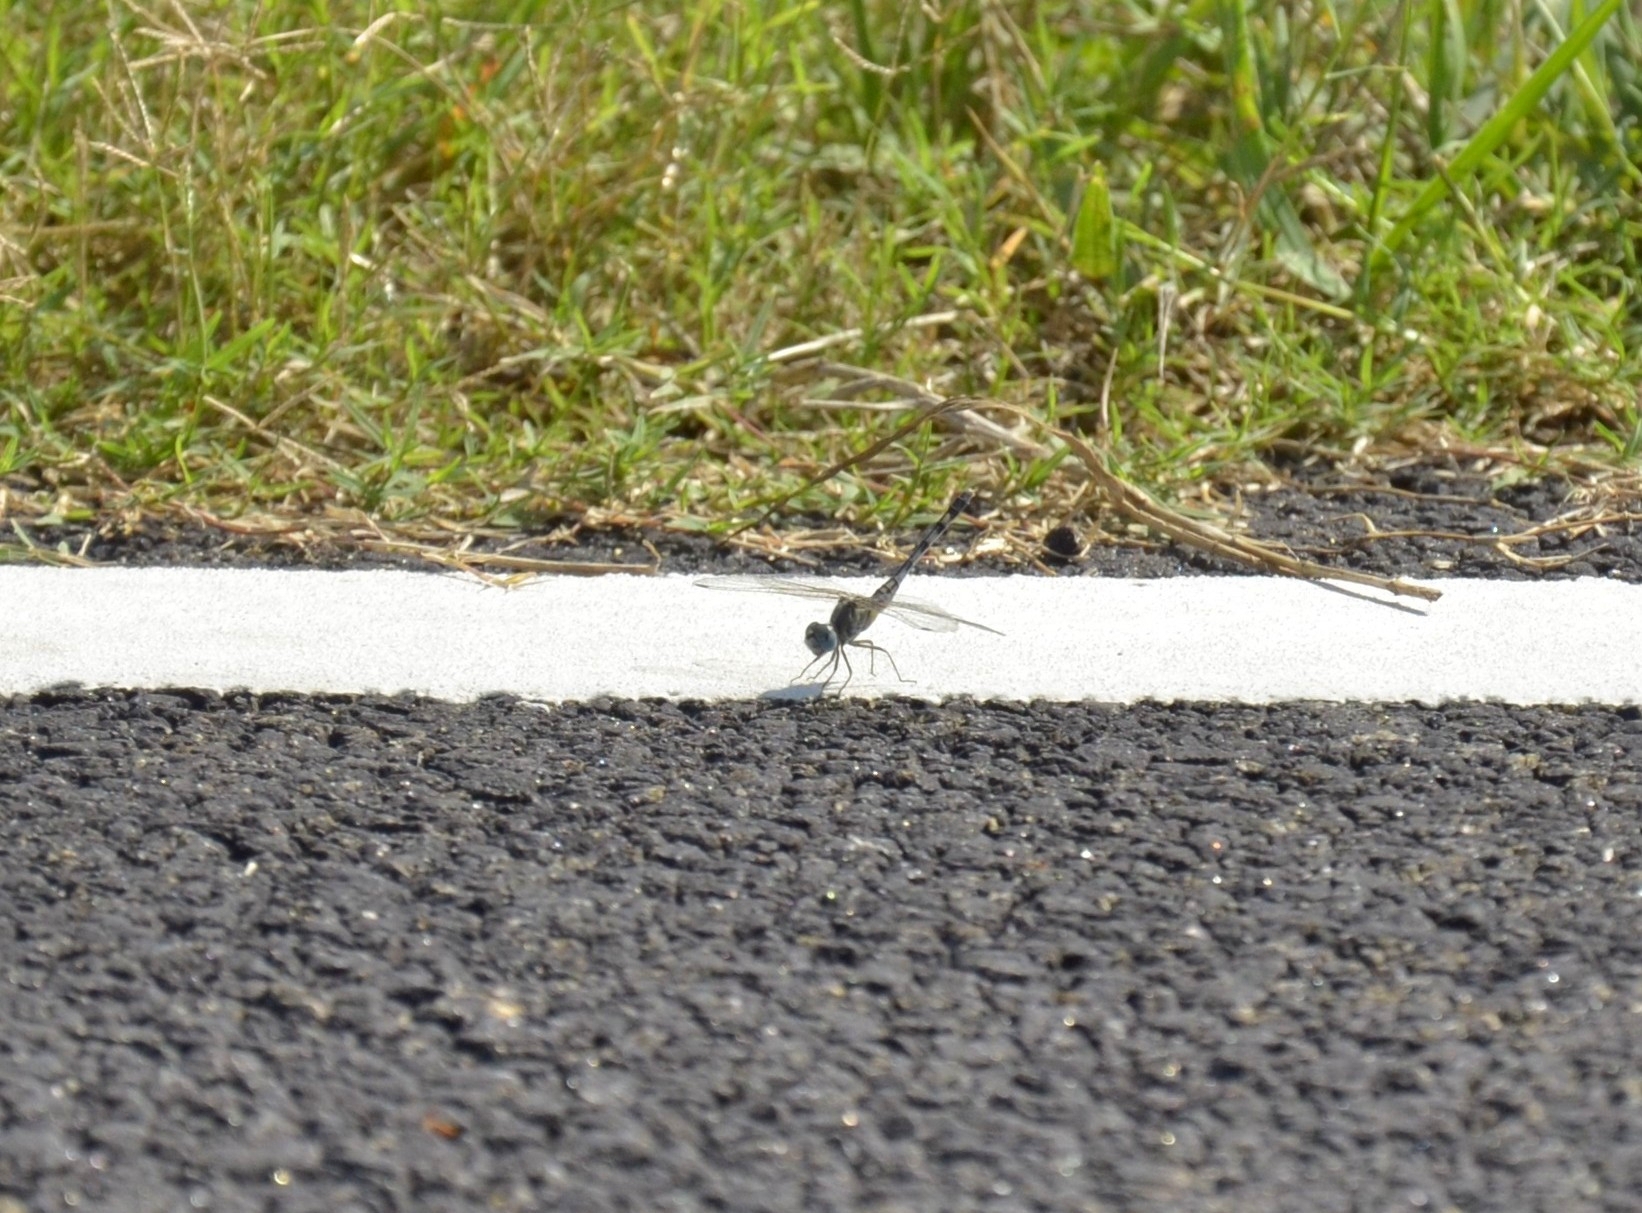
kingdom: Animalia
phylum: Arthropoda
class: Insecta
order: Odonata
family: Libellulidae
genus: Diplacodes
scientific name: Diplacodes trivialis
